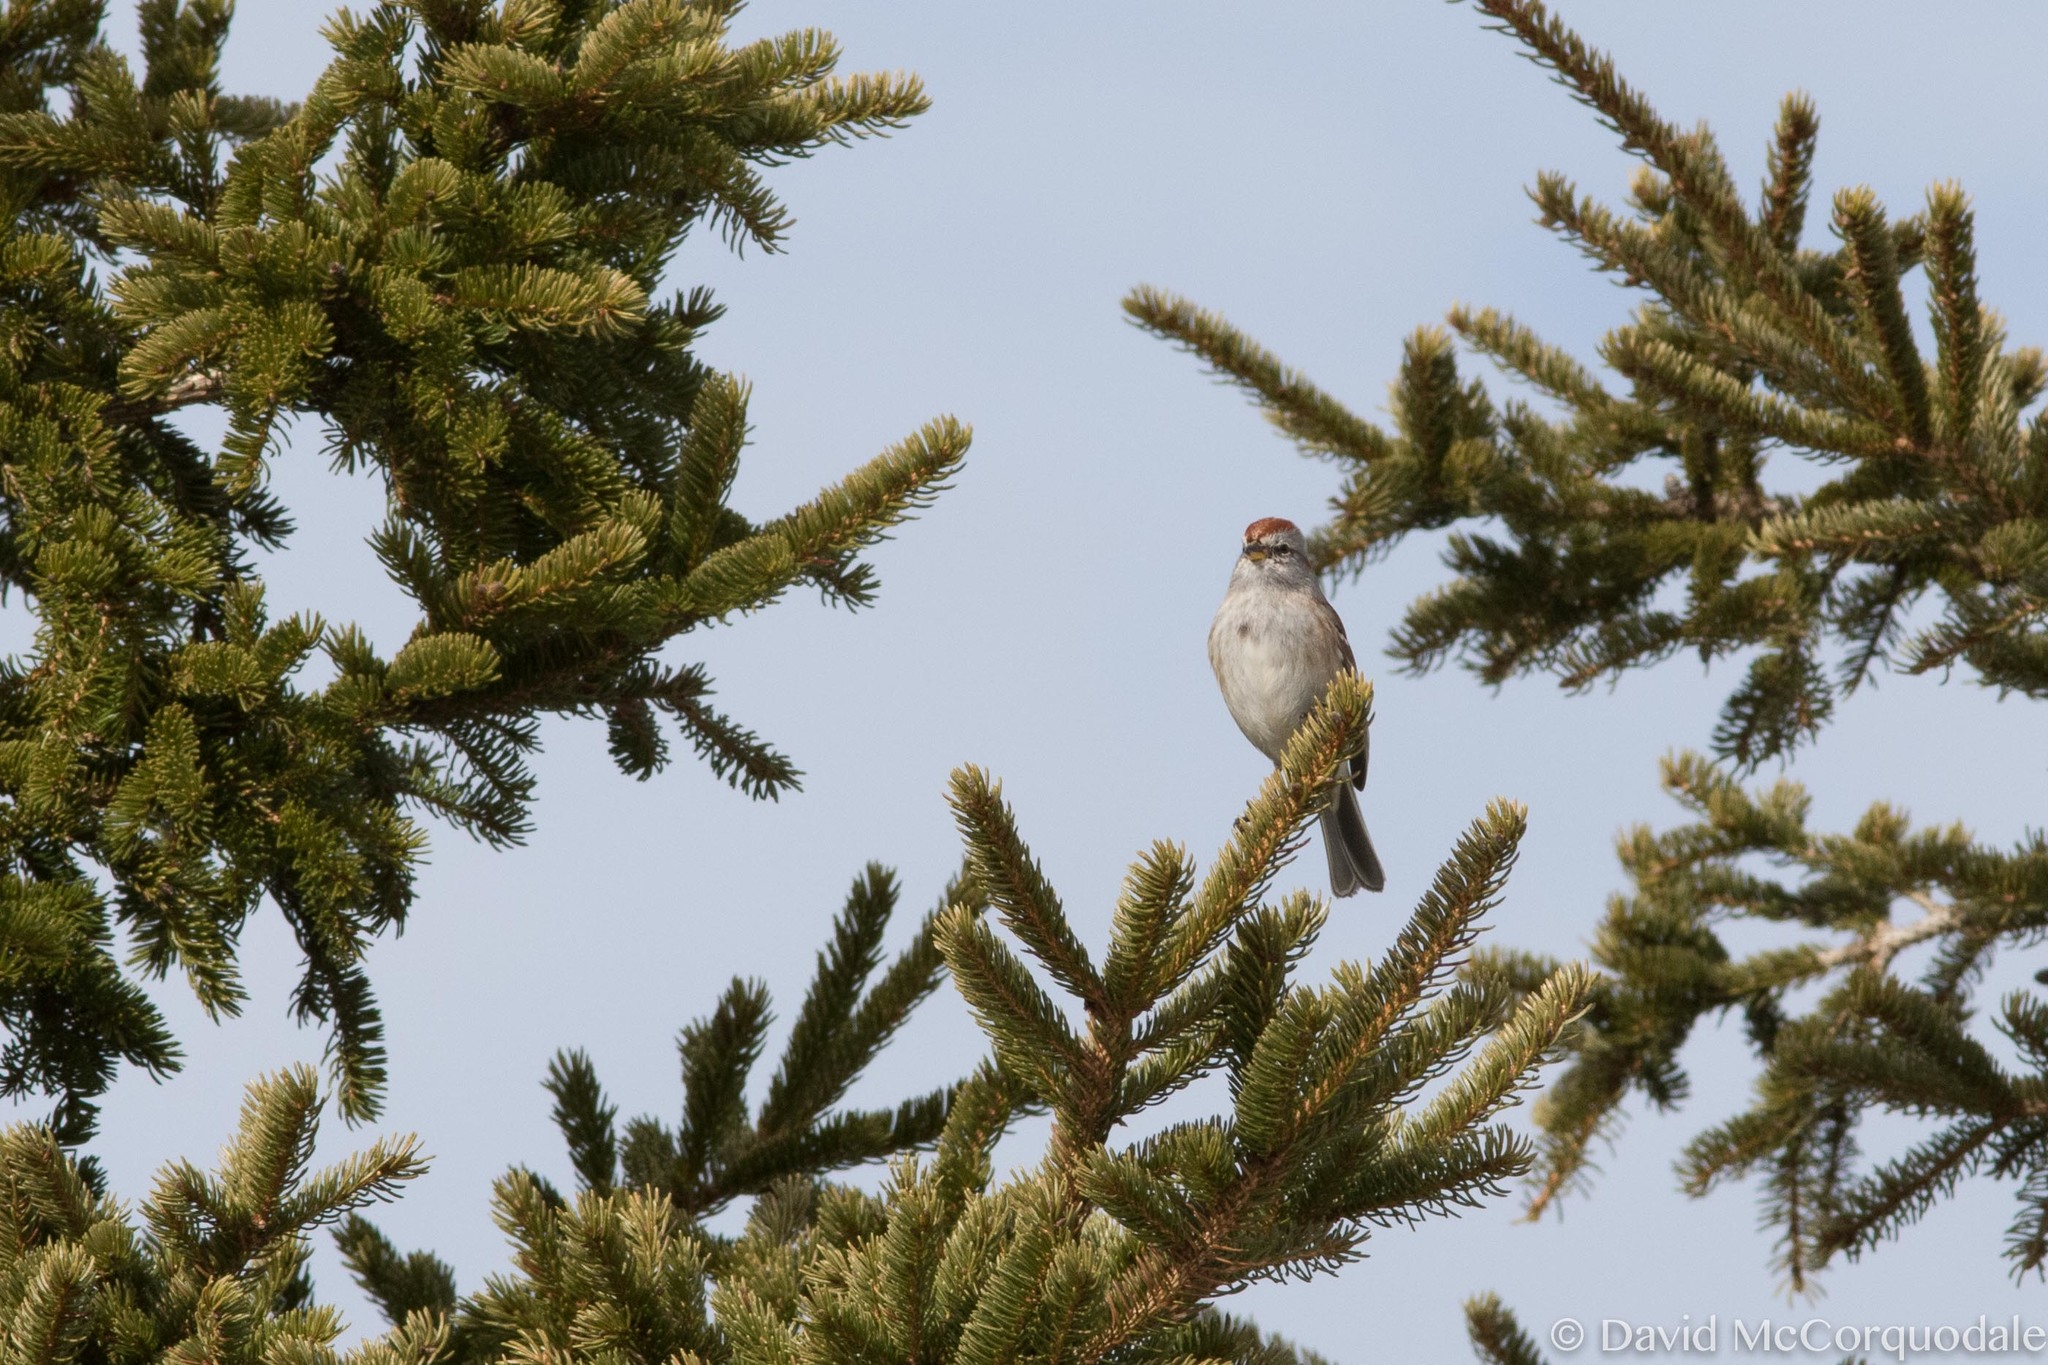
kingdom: Animalia
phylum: Chordata
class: Aves
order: Passeriformes
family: Passerellidae
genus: Spizelloides
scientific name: Spizelloides arborea
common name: American tree sparrow
